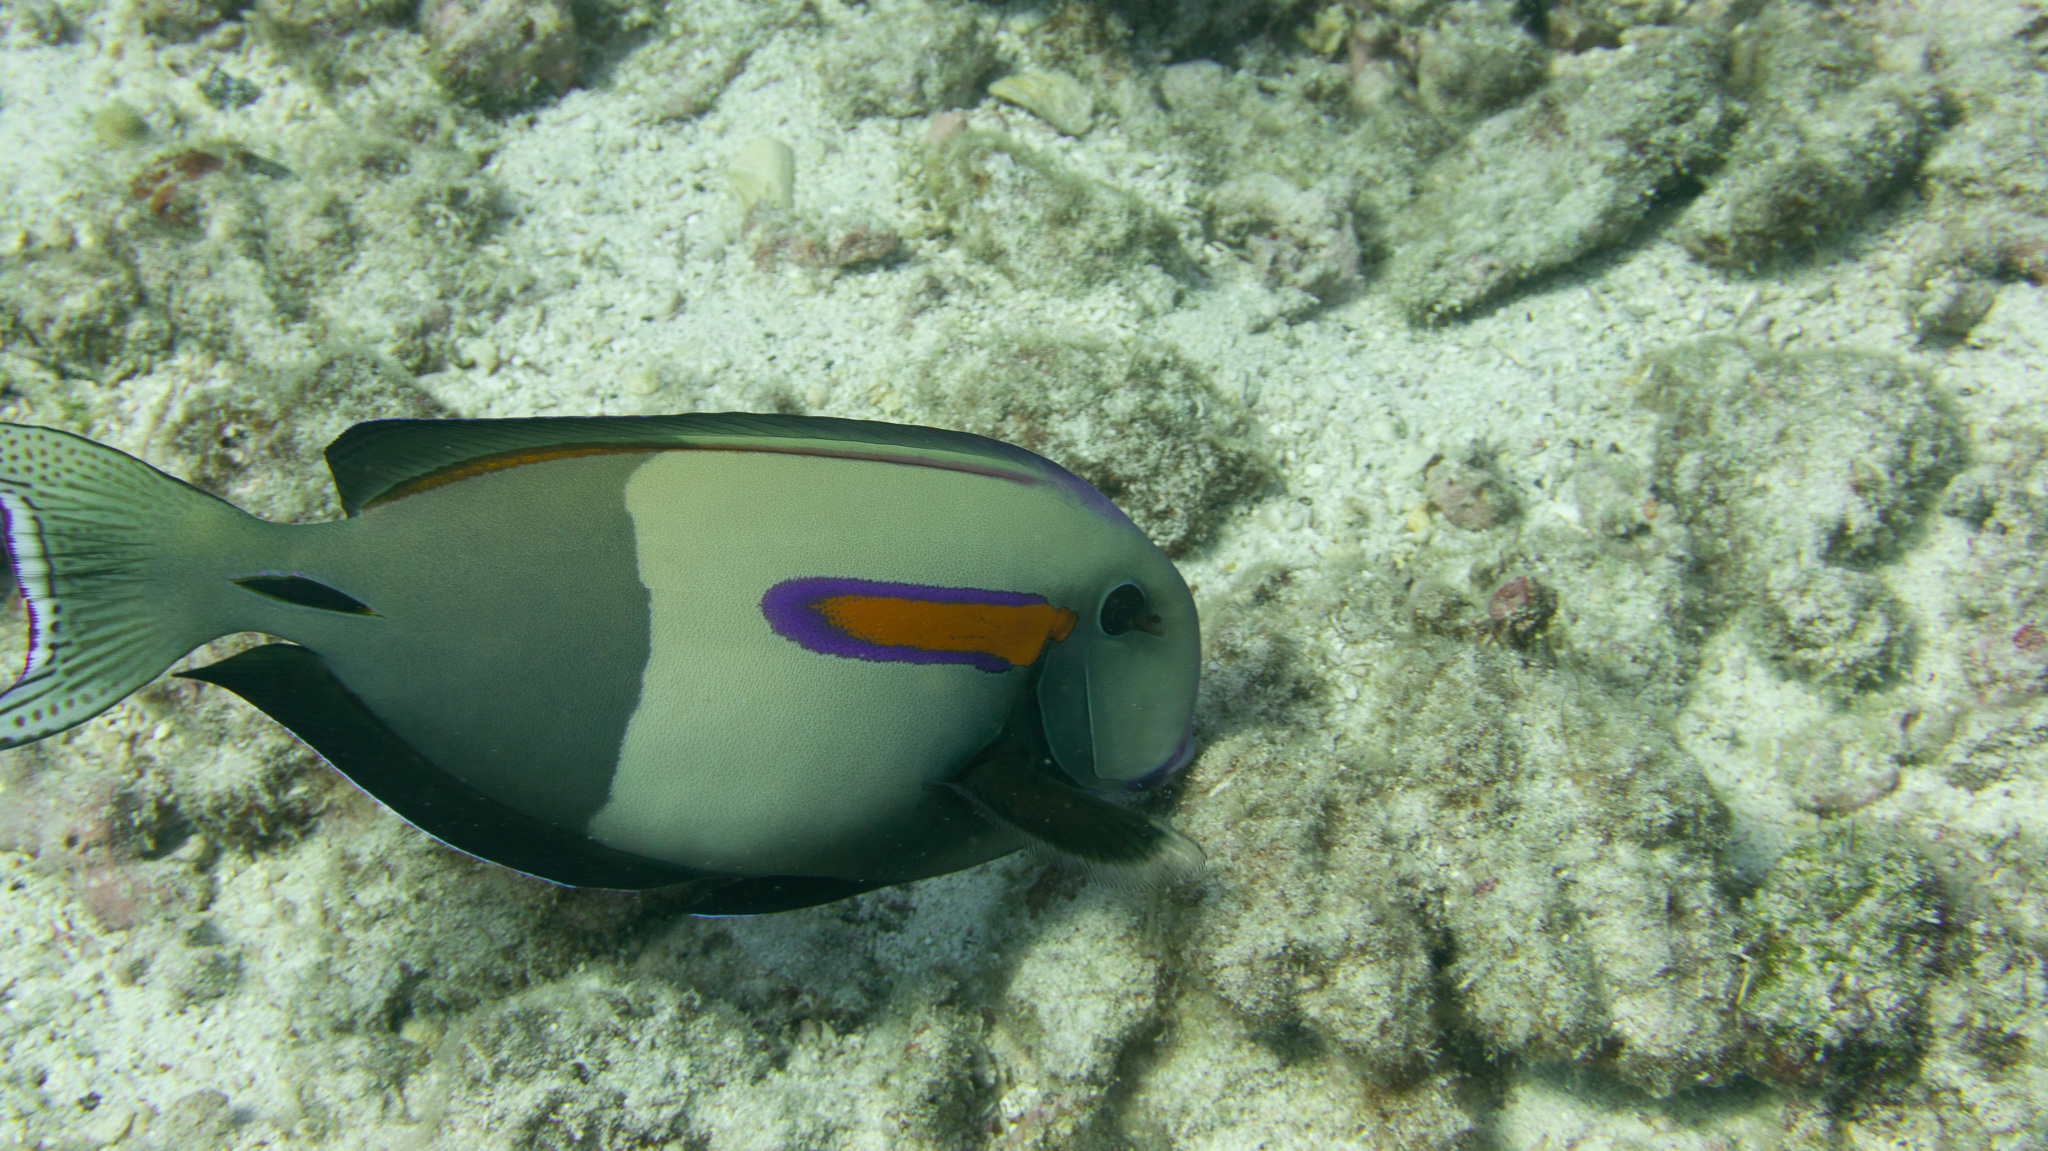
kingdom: Animalia
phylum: Chordata
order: Perciformes
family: Acanthuridae
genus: Acanthurus
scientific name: Acanthurus olivaceus
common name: Gendarme fish
